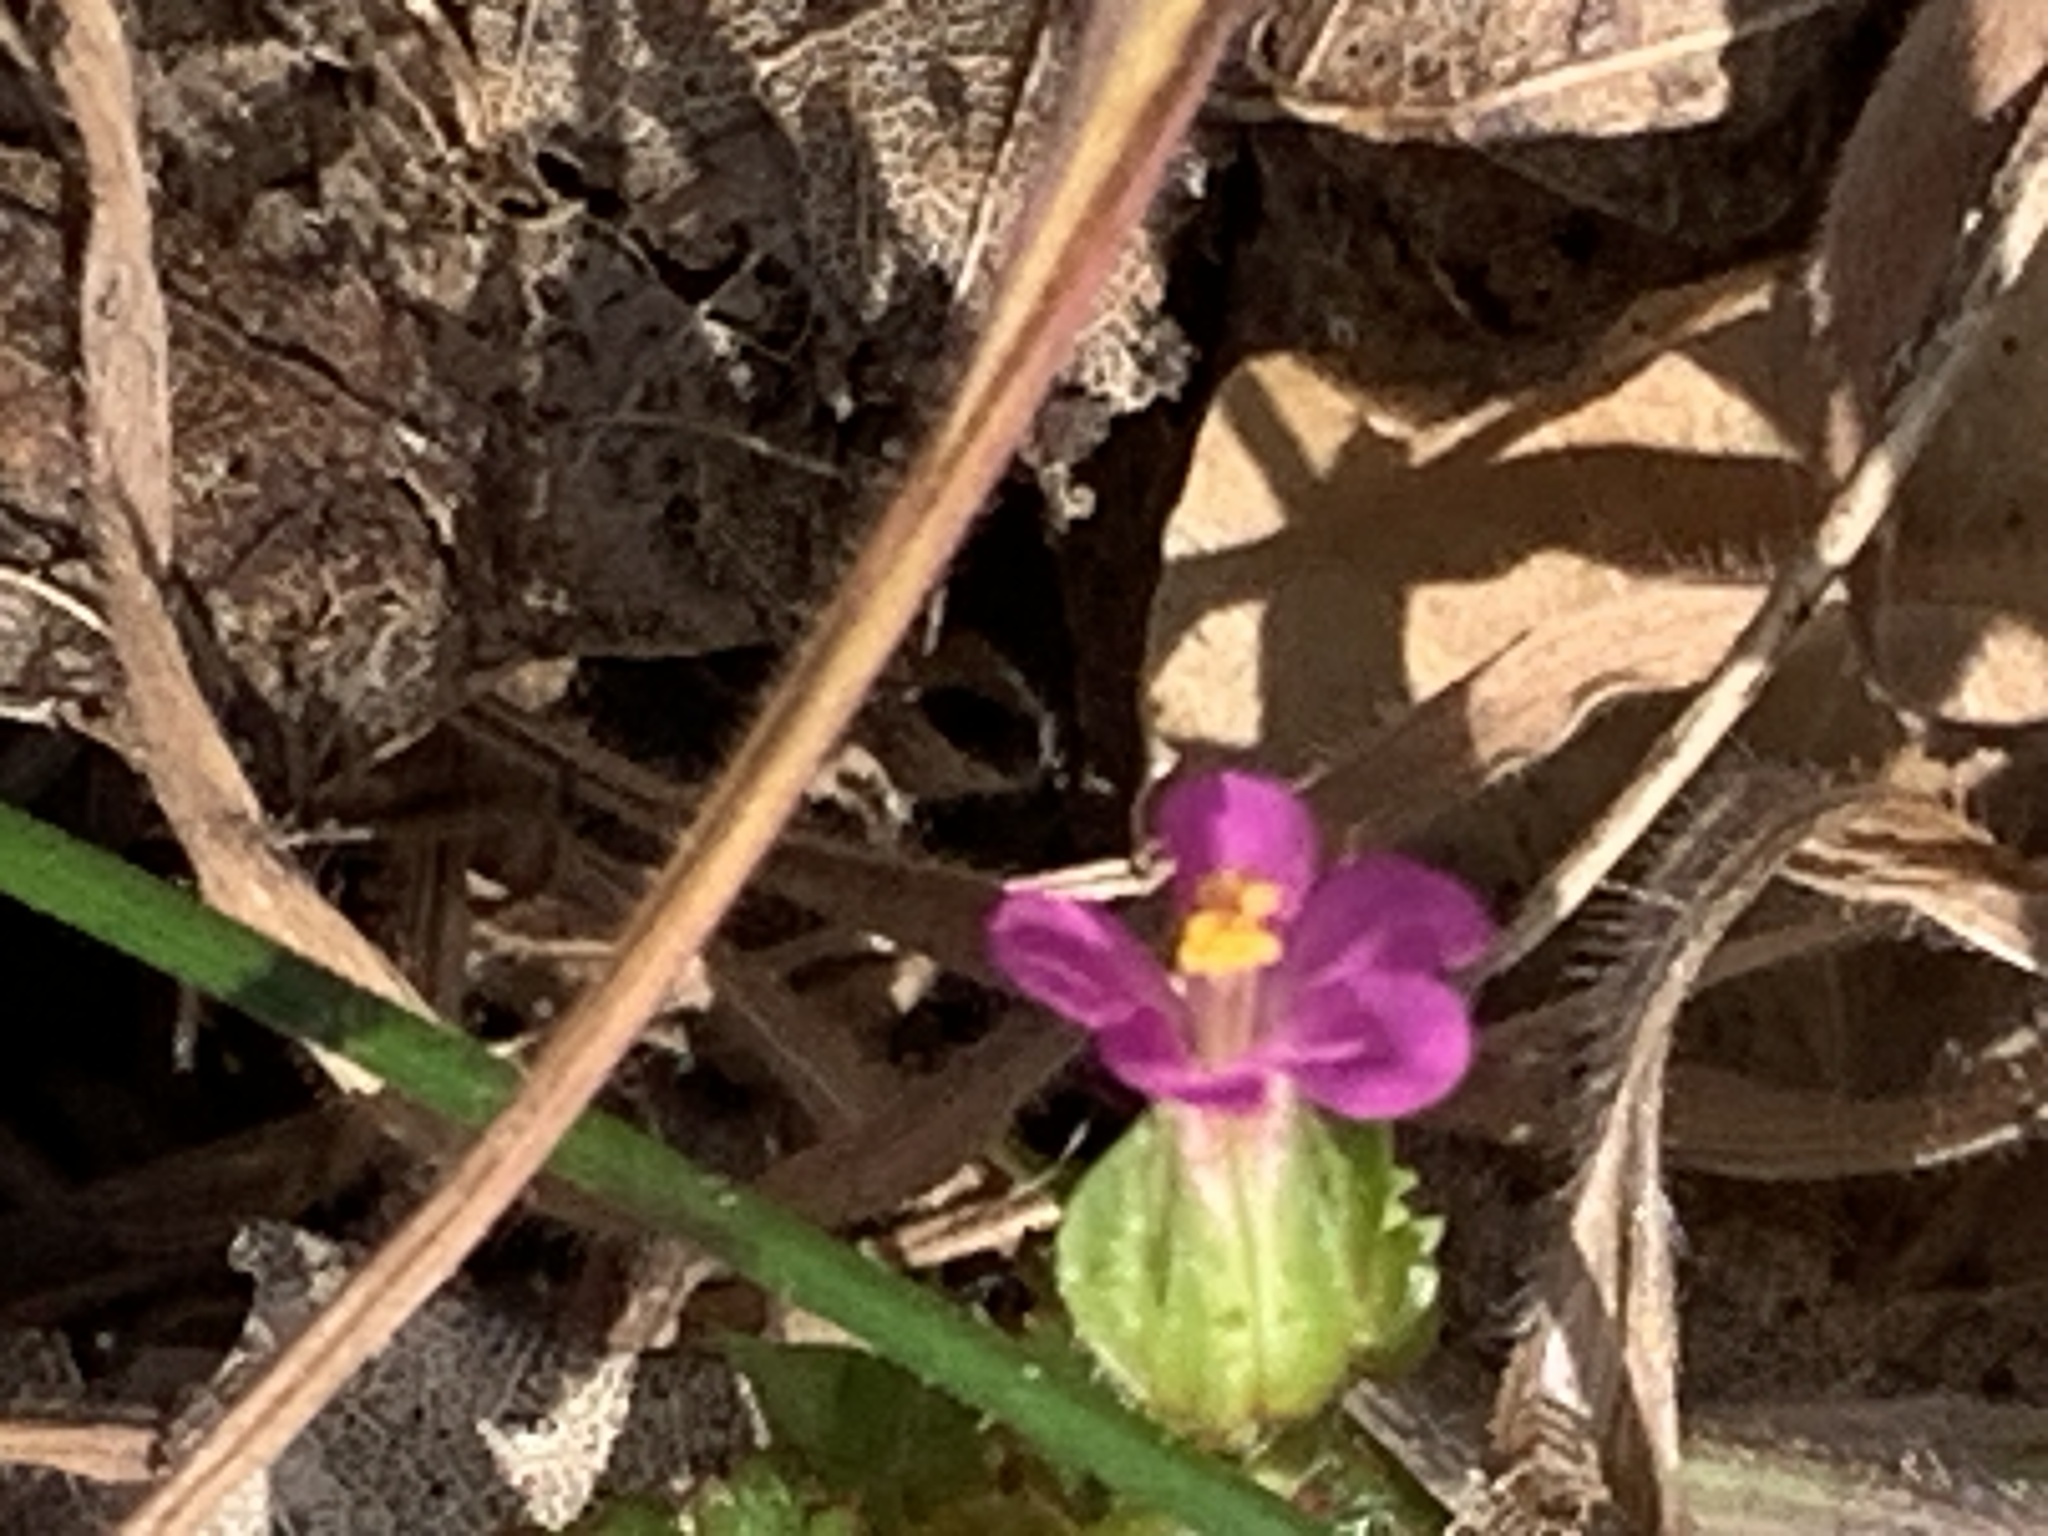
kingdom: Plantae
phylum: Tracheophyta
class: Magnoliopsida
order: Geraniales
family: Geraniaceae
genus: Geranium
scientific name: Geranium lucidum
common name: Shining crane's-bill
